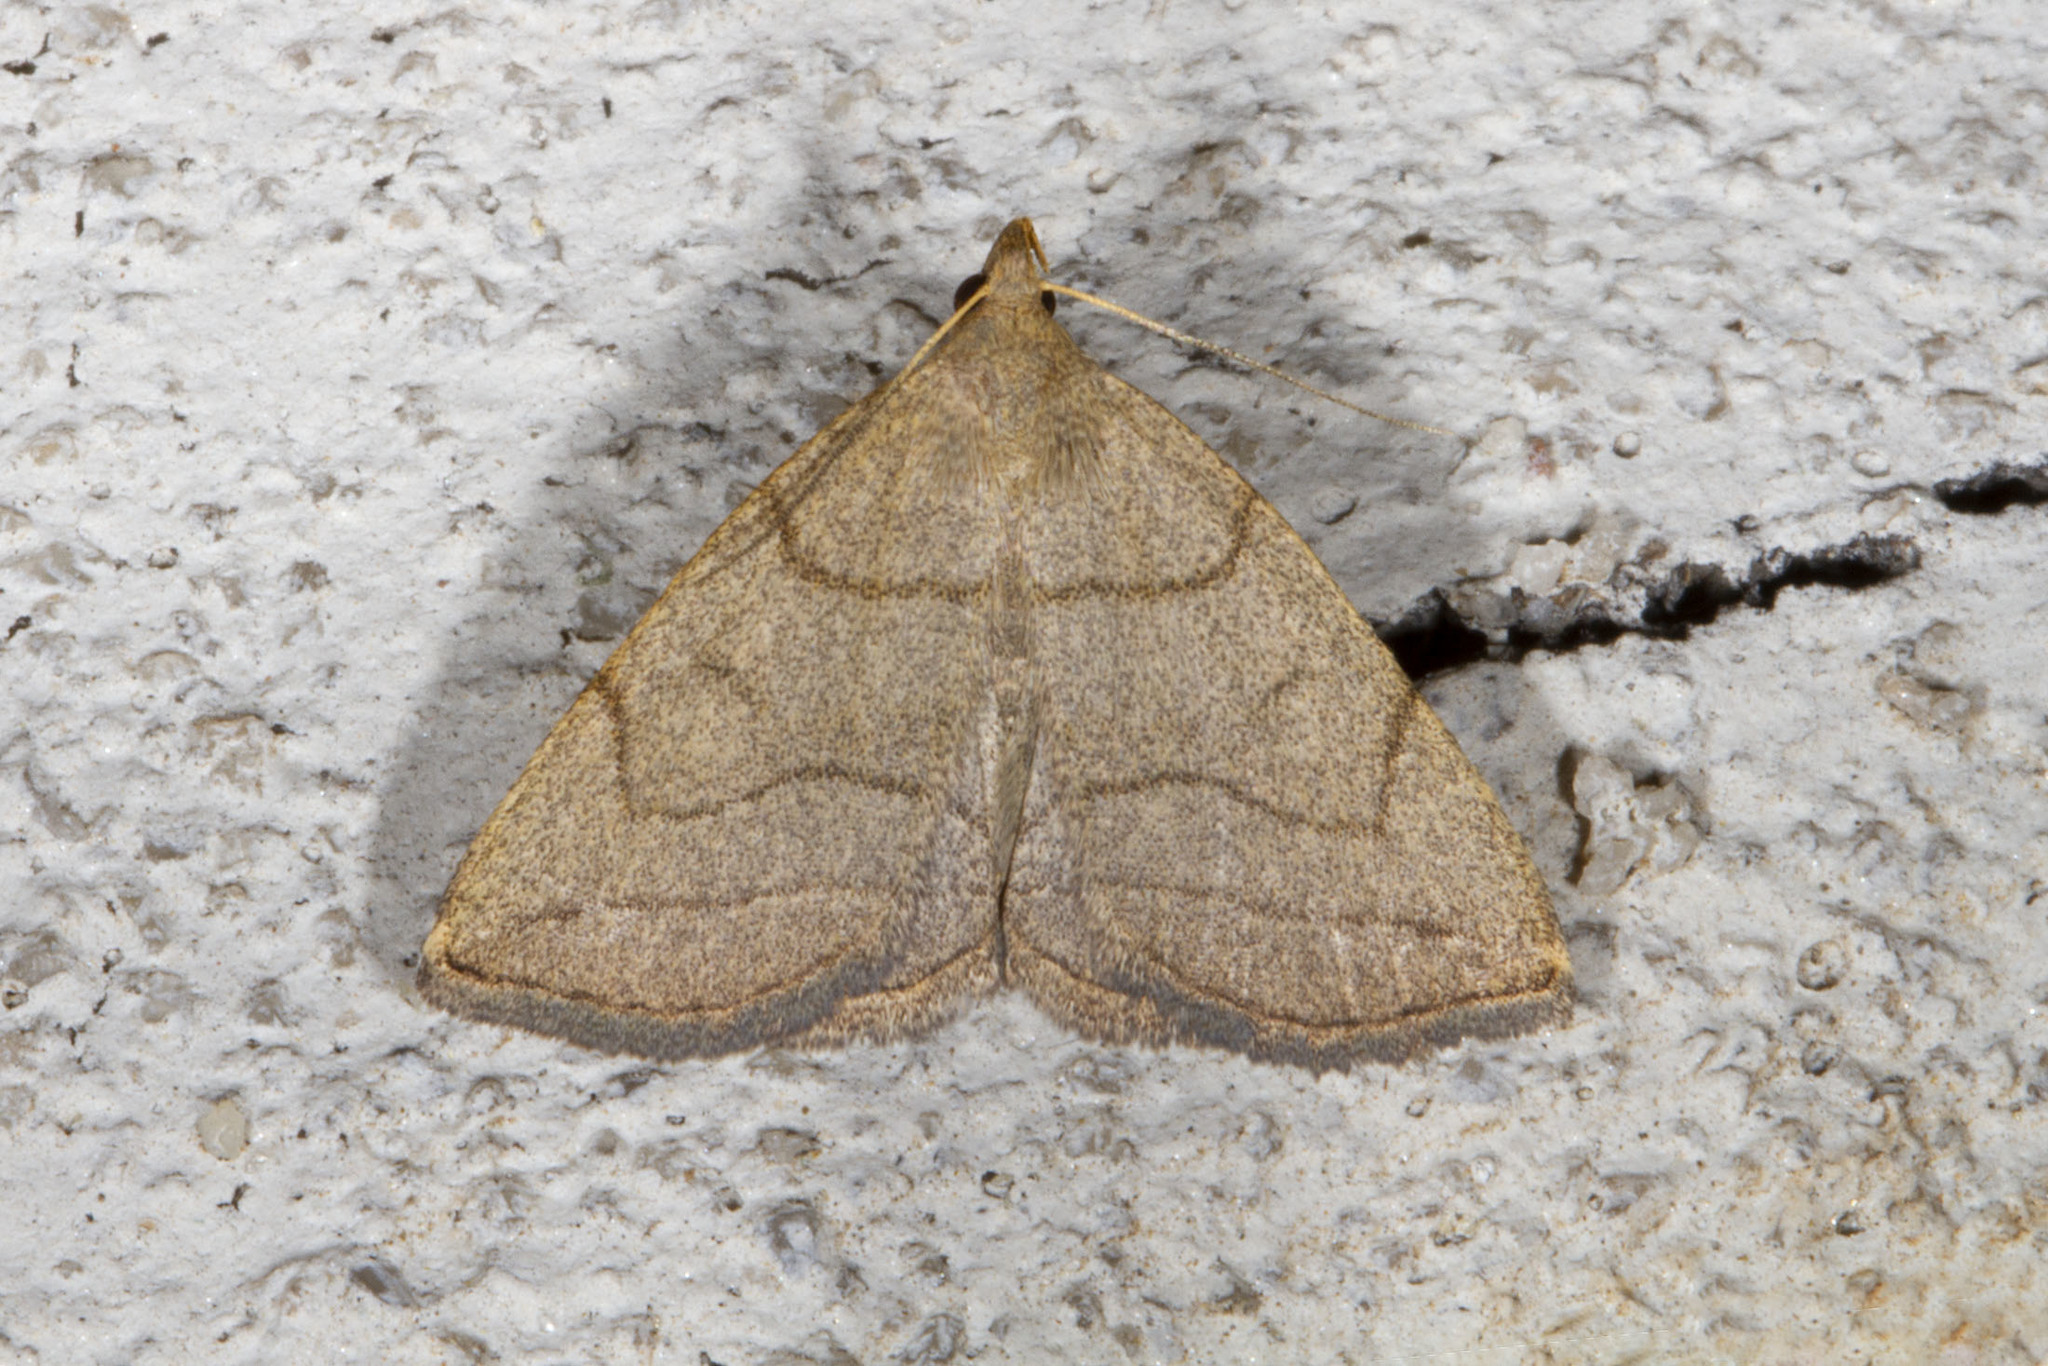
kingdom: Animalia
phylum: Arthropoda
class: Insecta
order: Lepidoptera
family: Erebidae
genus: Zanclognatha
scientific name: Zanclognatha pedipilalis
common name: Grayish fan-foot
